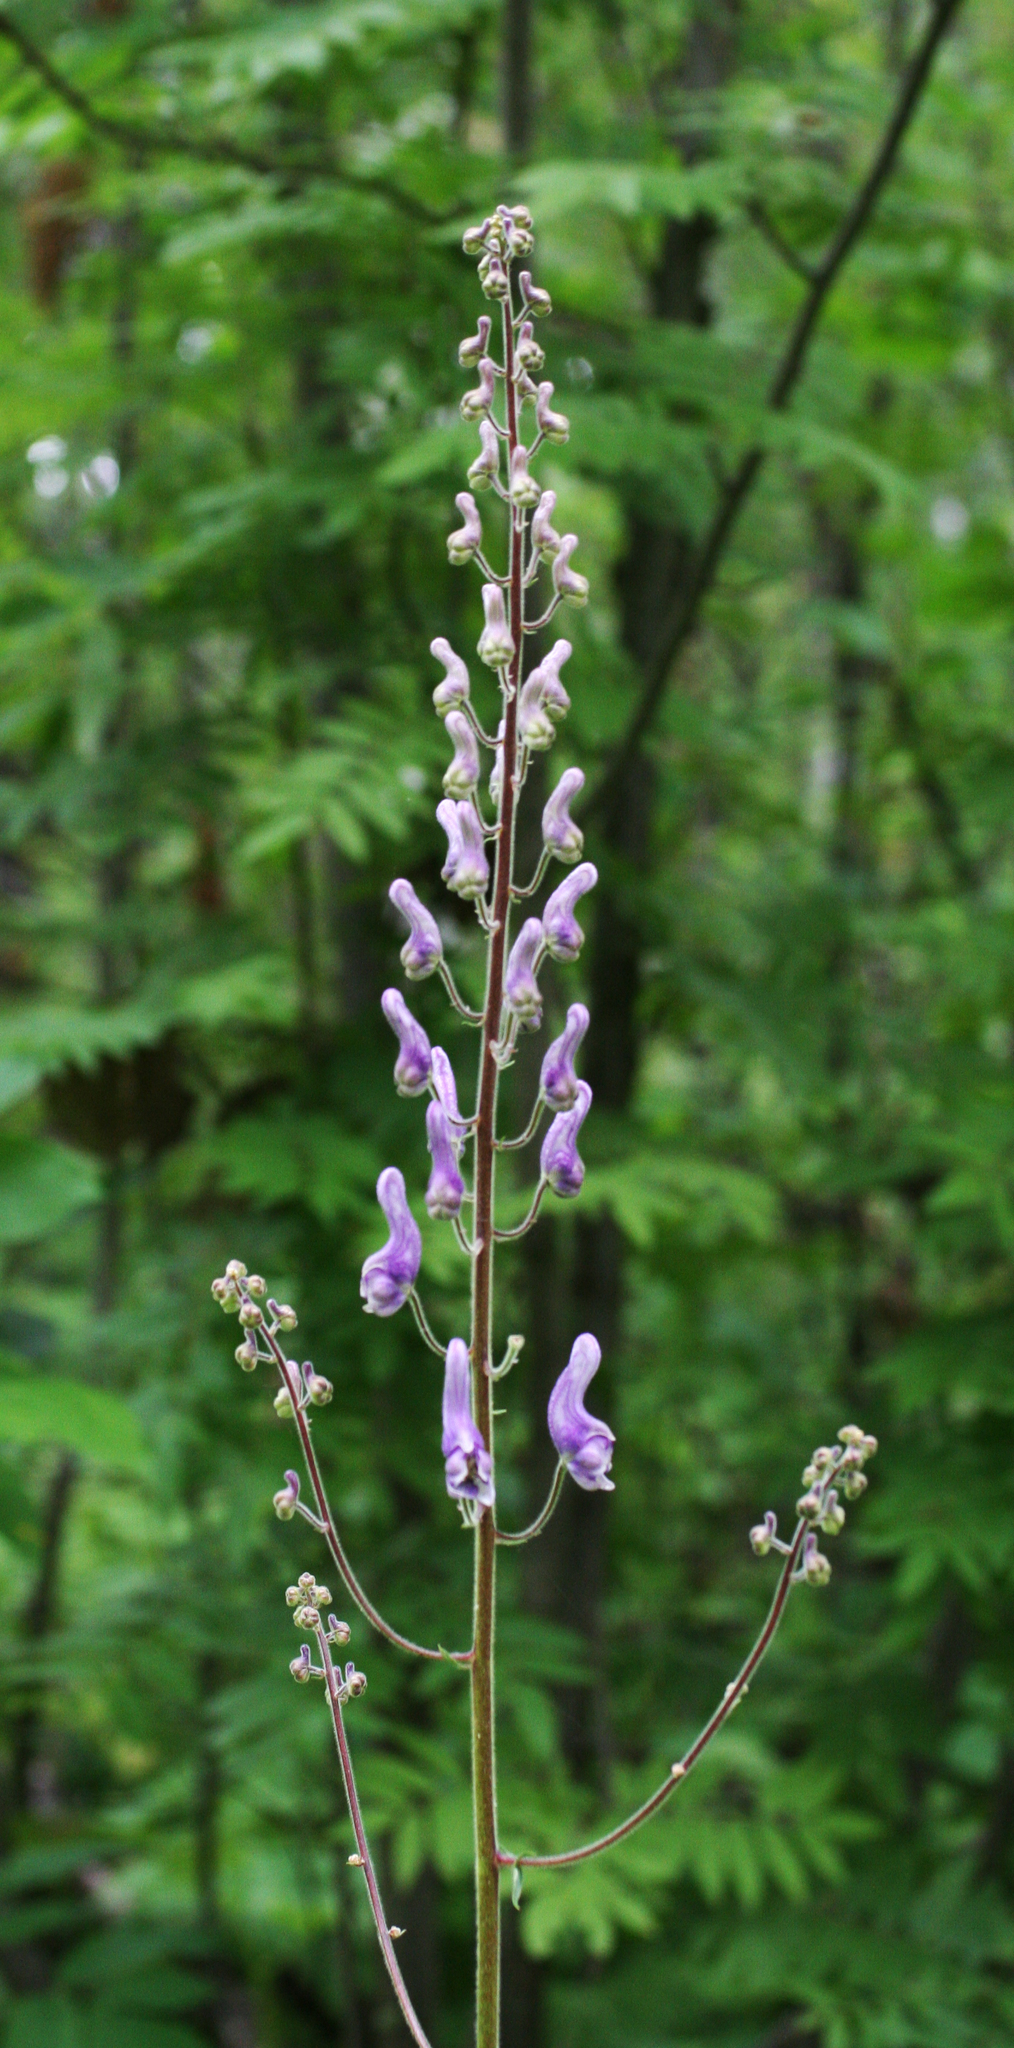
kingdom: Plantae
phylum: Tracheophyta
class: Magnoliopsida
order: Ranunculales
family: Ranunculaceae
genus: Aconitum
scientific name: Aconitum septentrionale
